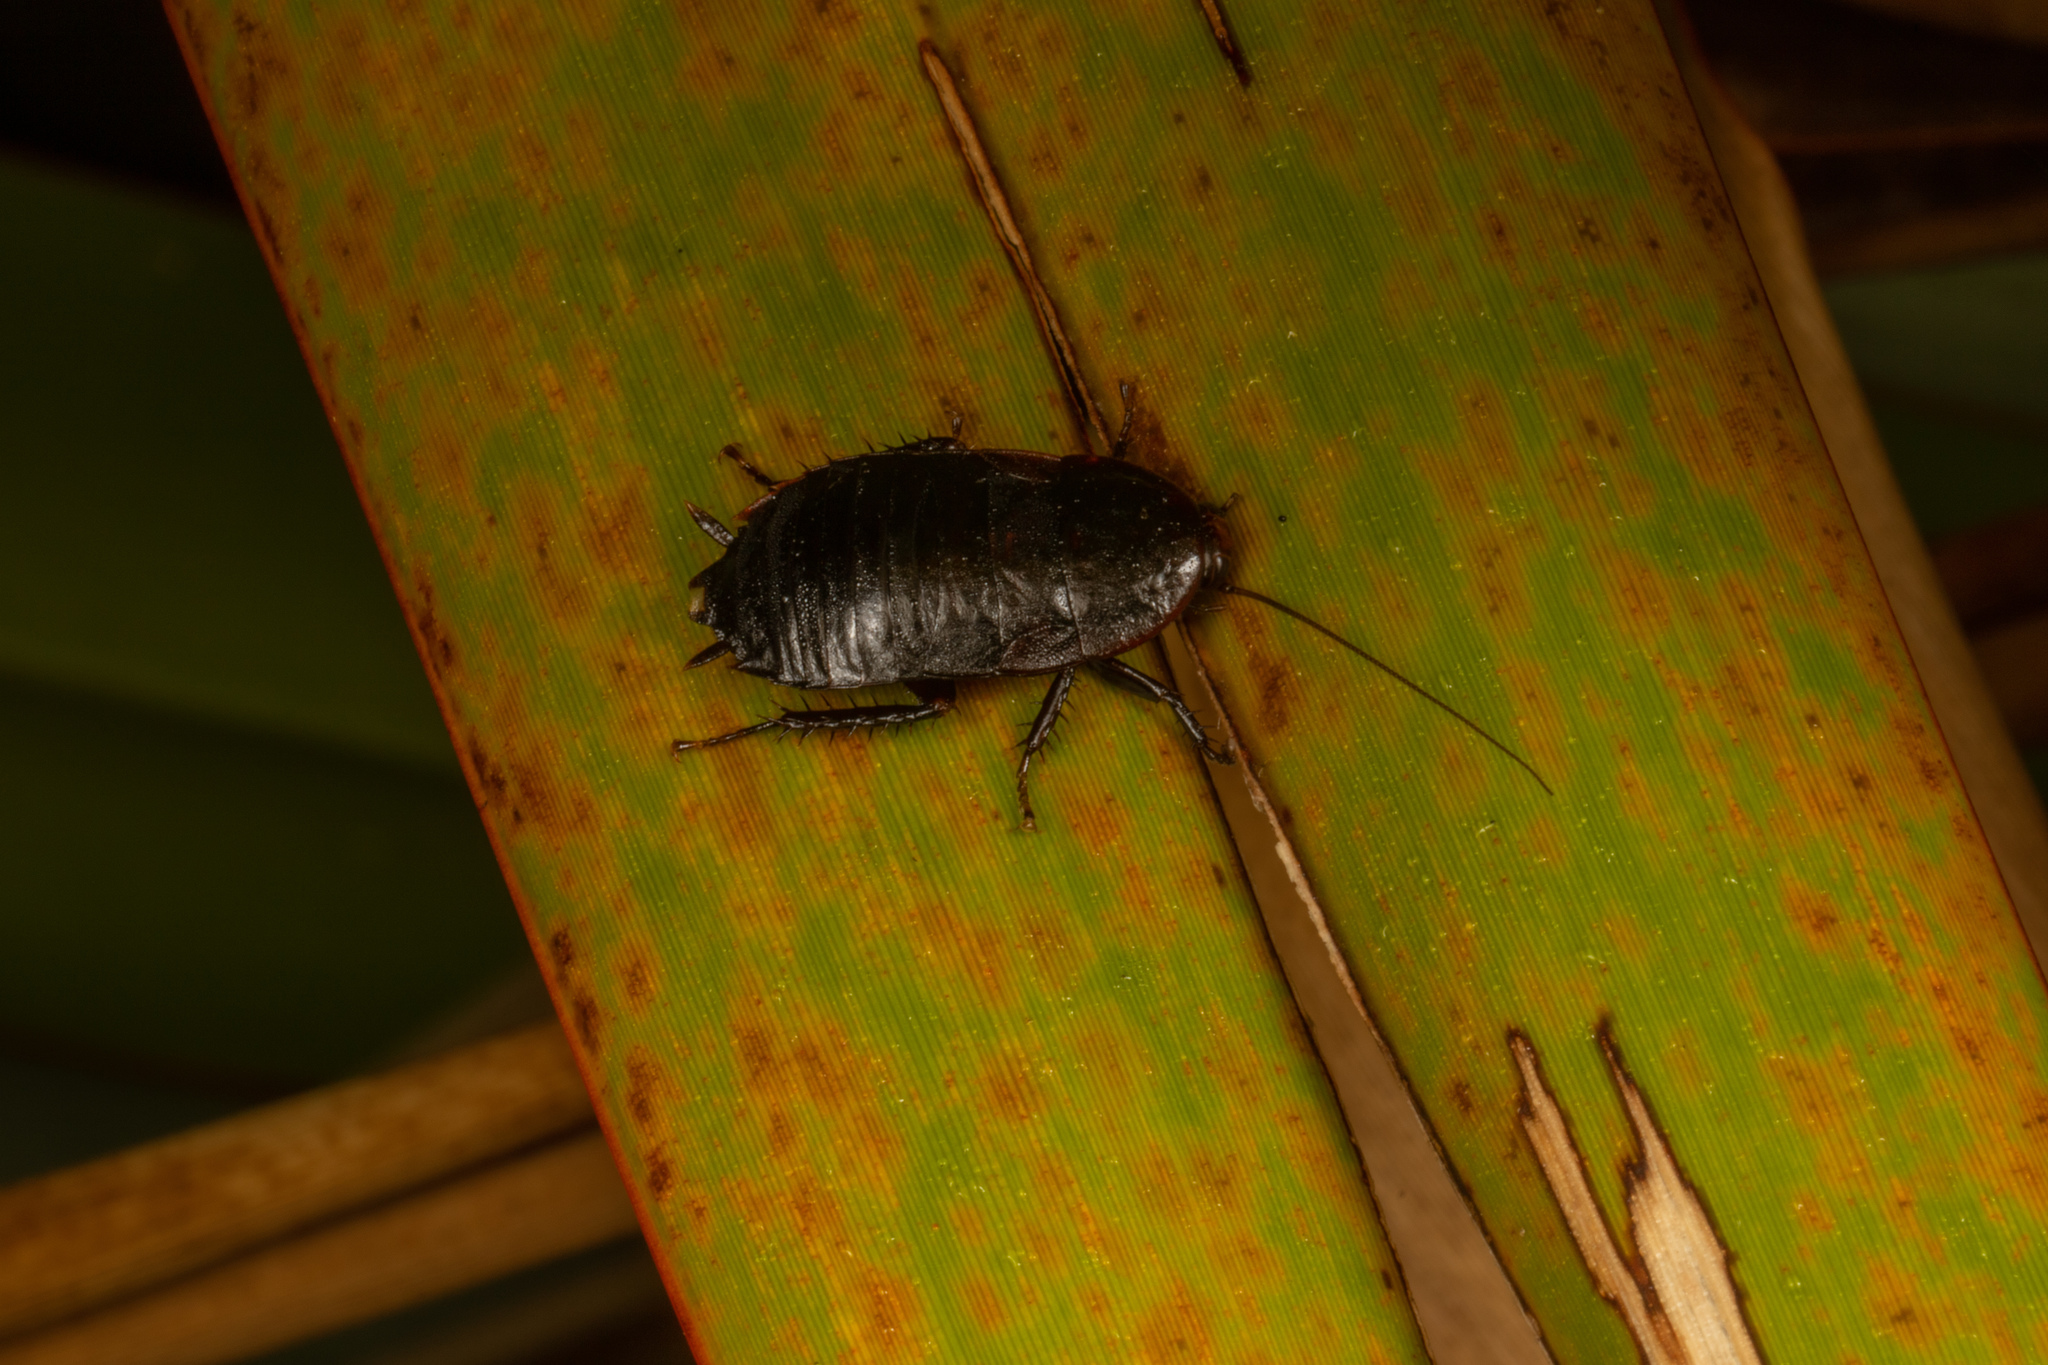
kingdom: Animalia
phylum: Arthropoda
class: Insecta
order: Blattodea
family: Blattidae
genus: Maoriblatta
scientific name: Maoriblatta novaeseelandiae
